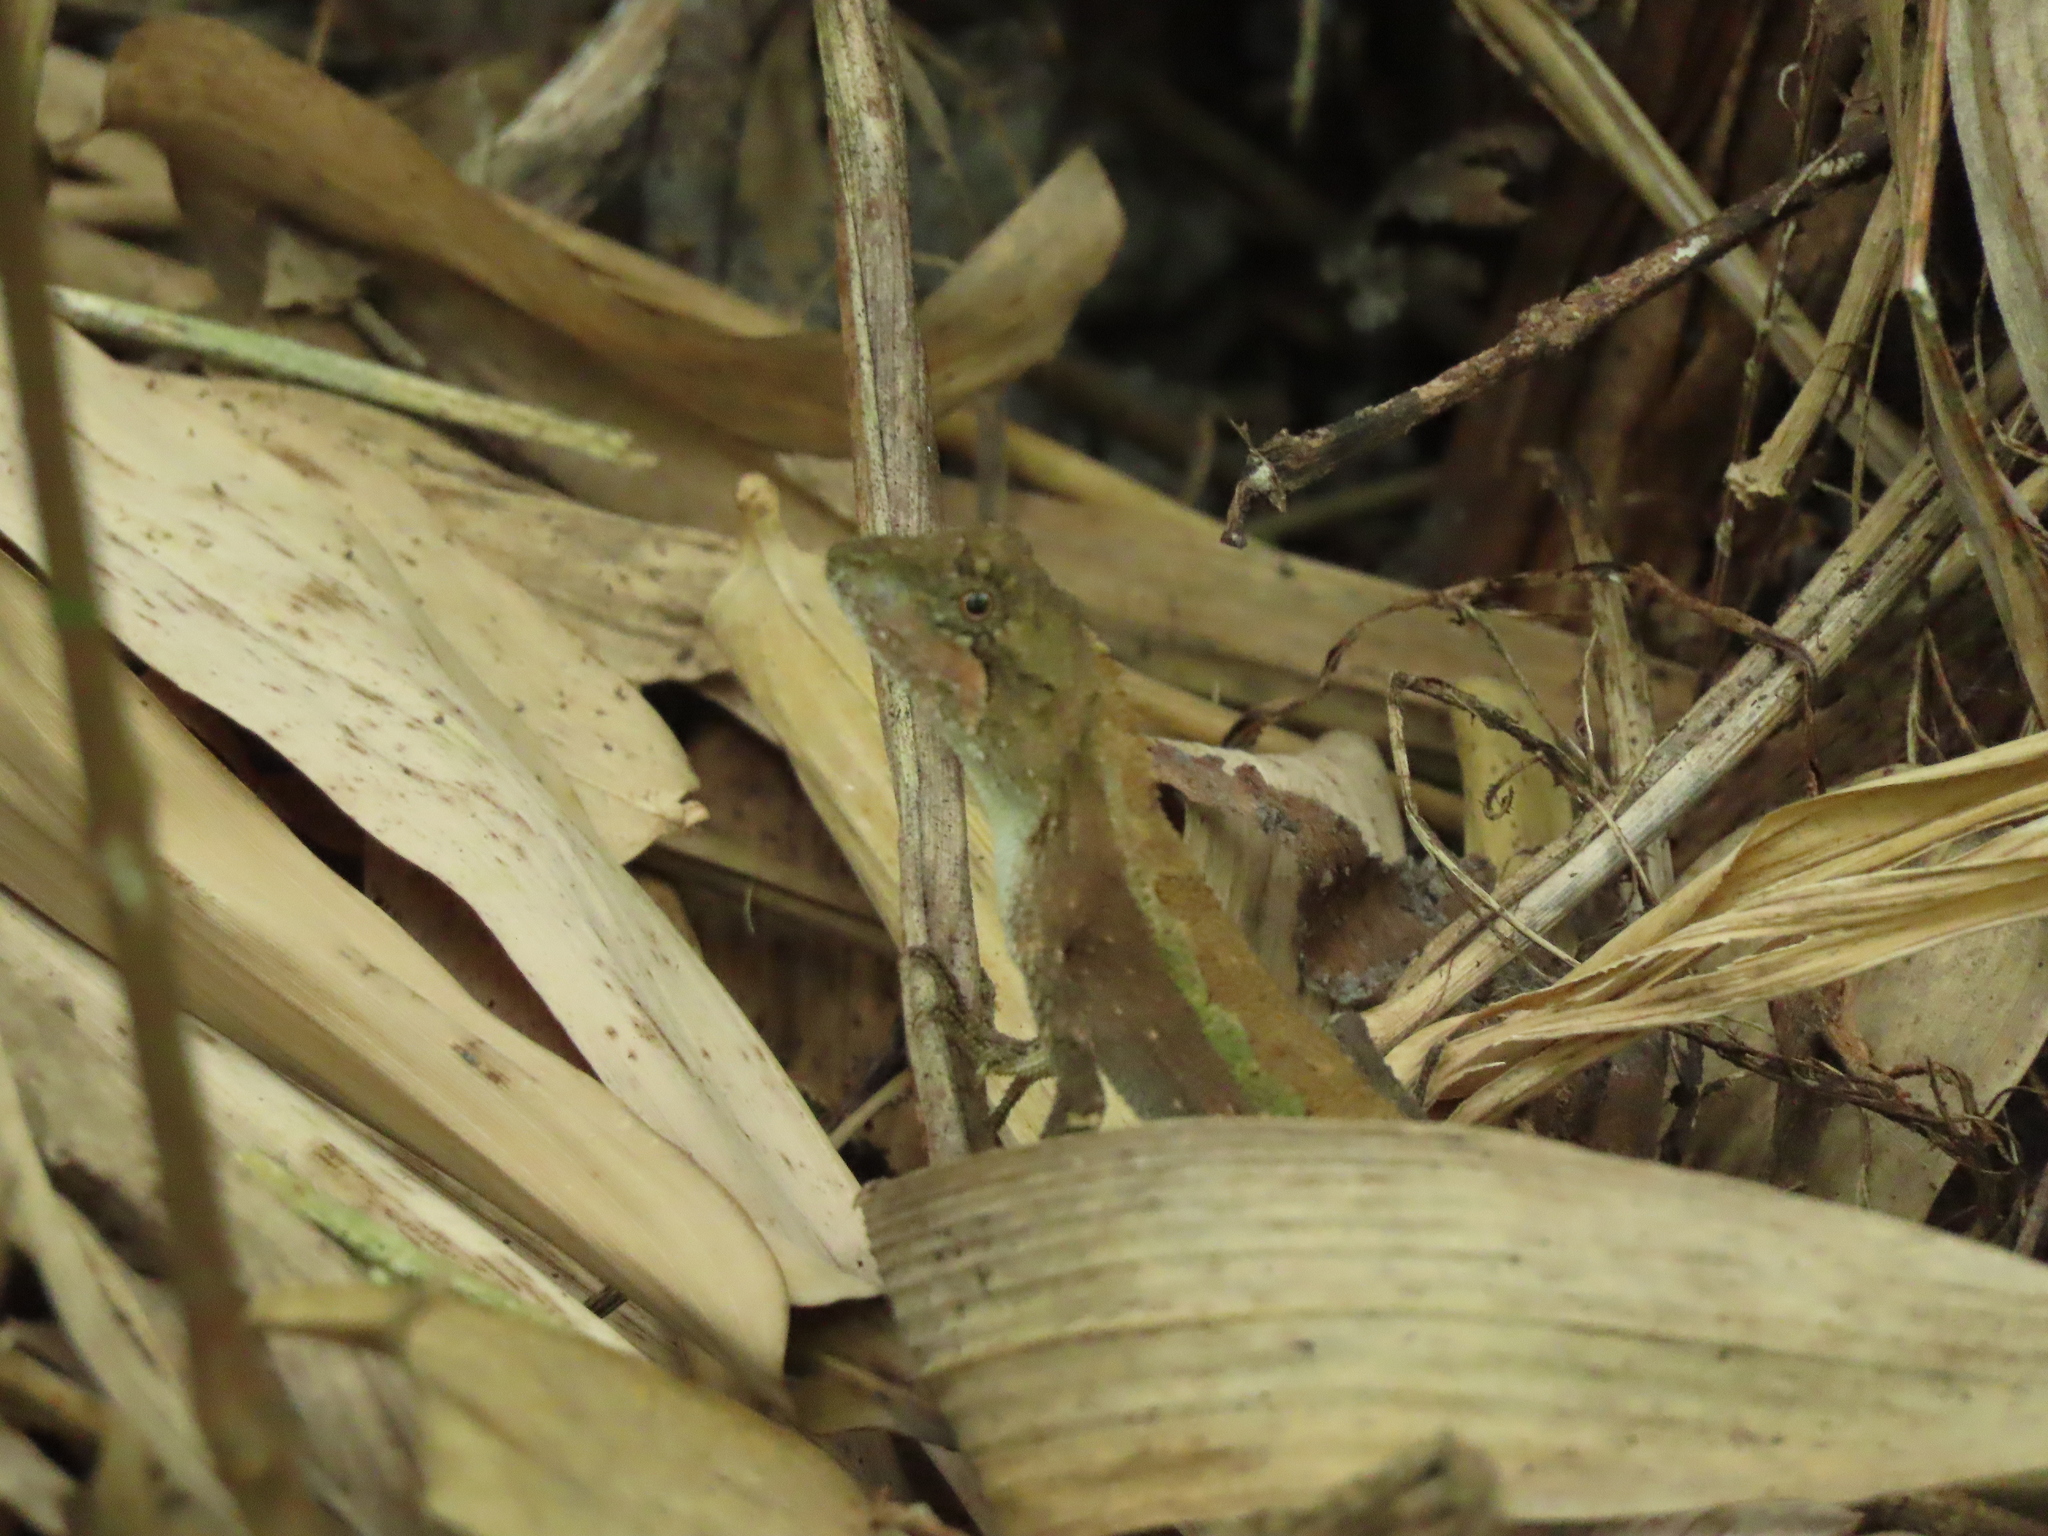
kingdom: Animalia
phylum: Chordata
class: Squamata
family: Agamidae
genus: Diploderma
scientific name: Diploderma swinhonis
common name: Taiwan japalure
